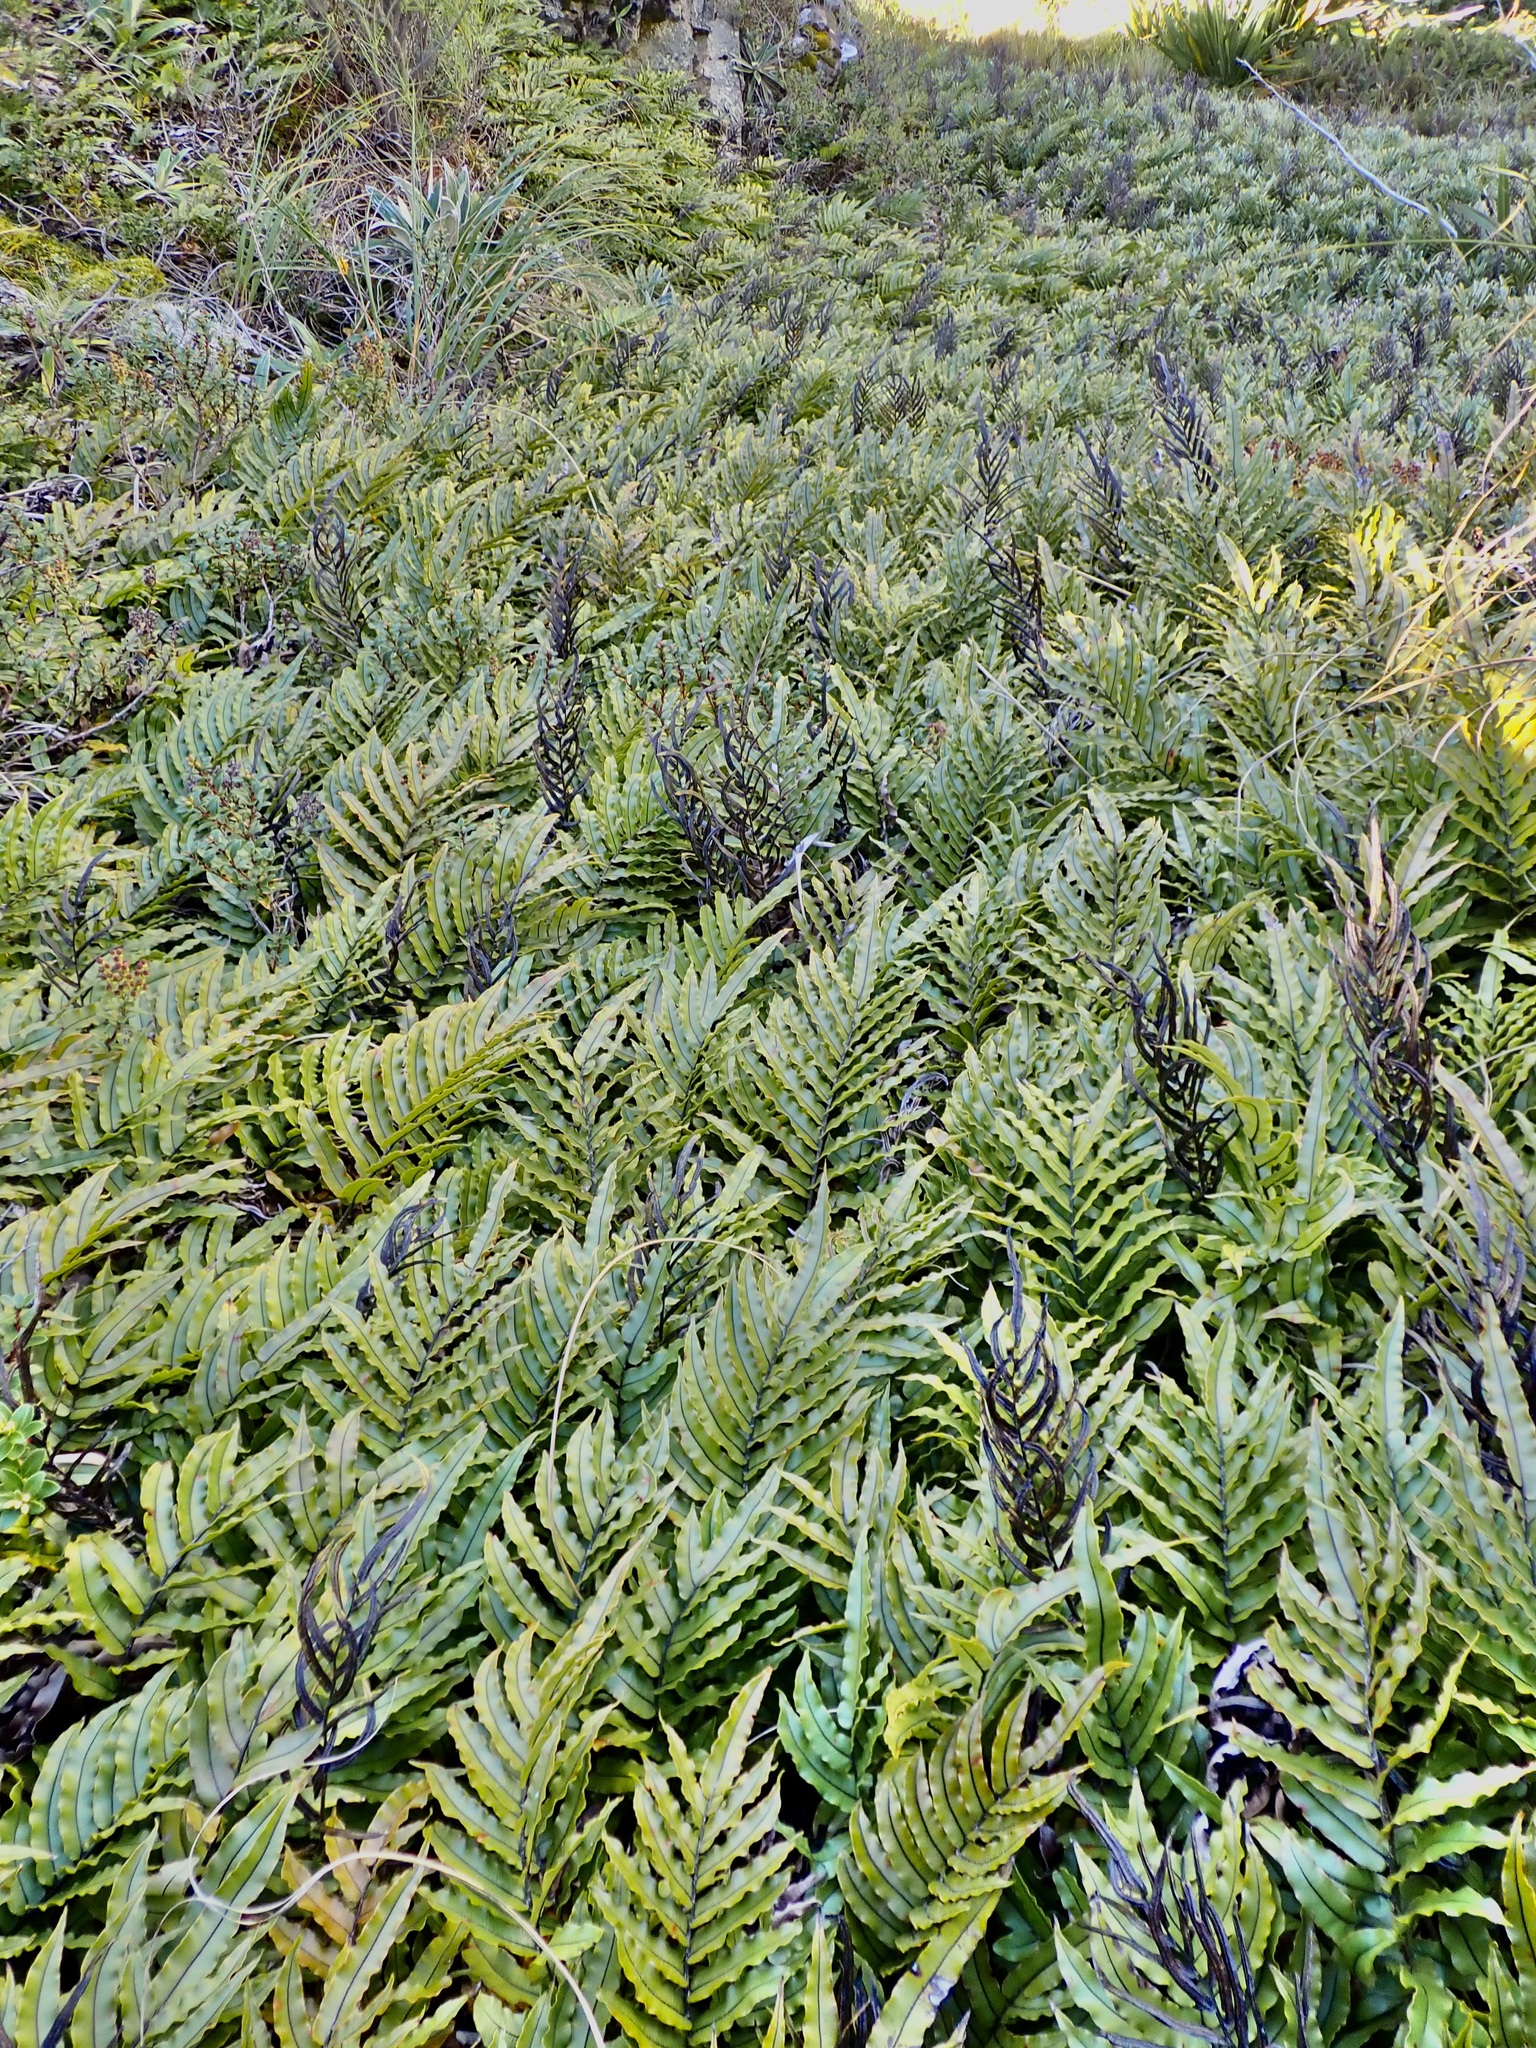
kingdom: Plantae
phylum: Tracheophyta
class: Polypodiopsida
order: Polypodiales
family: Blechnaceae
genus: Parablechnum
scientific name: Parablechnum montanum
